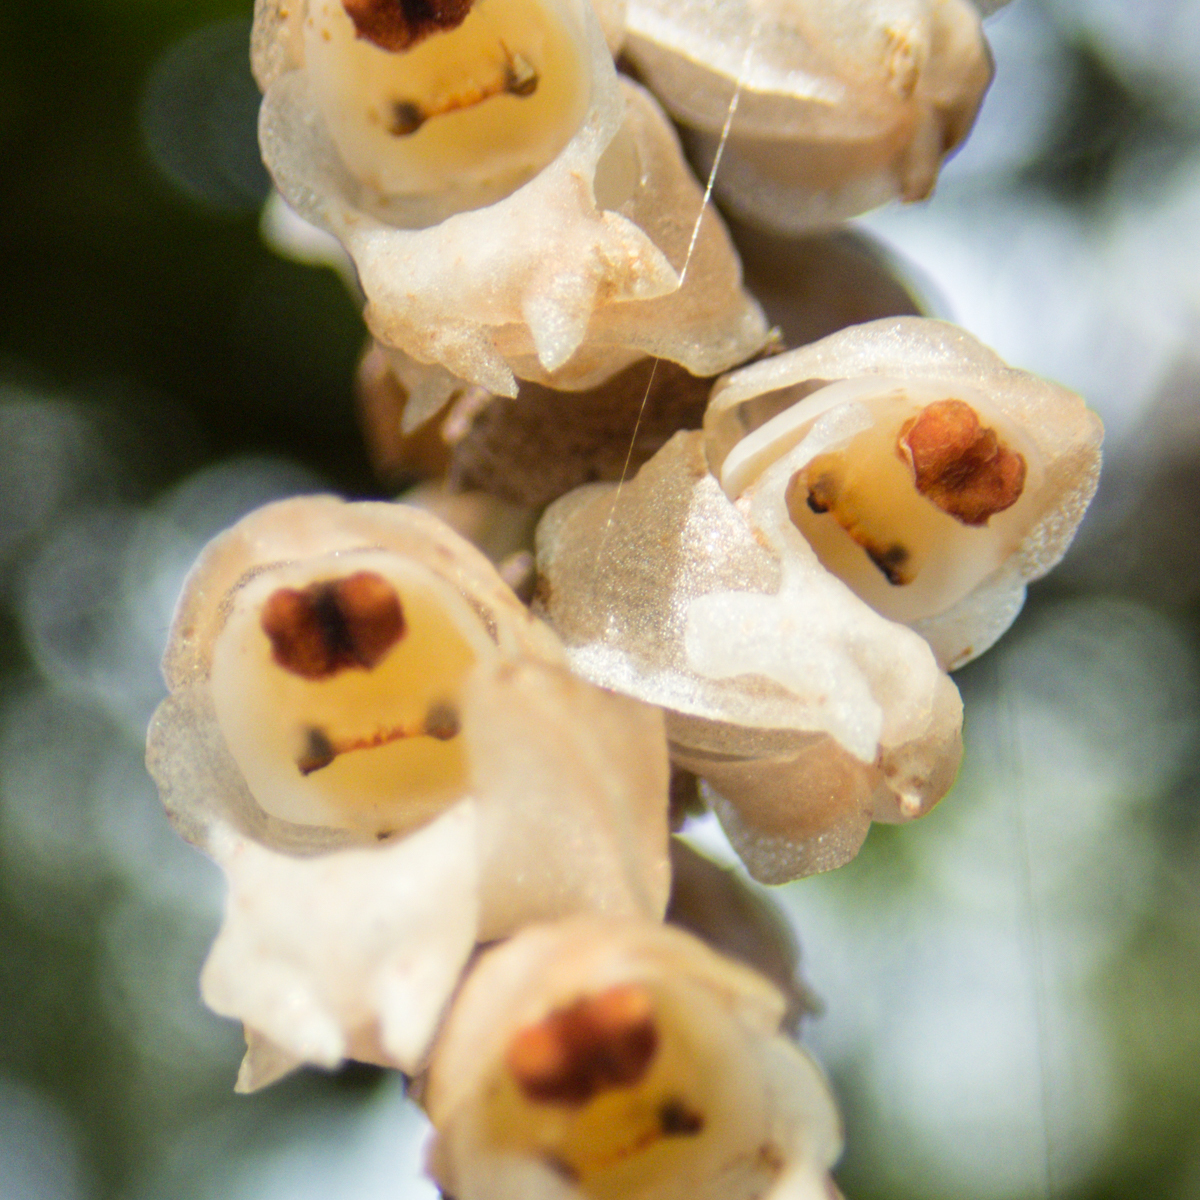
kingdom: Plantae
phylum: Tracheophyta
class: Liliopsida
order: Asparagales
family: Orchidaceae
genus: Pholidota
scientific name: Pholidota imbricata
